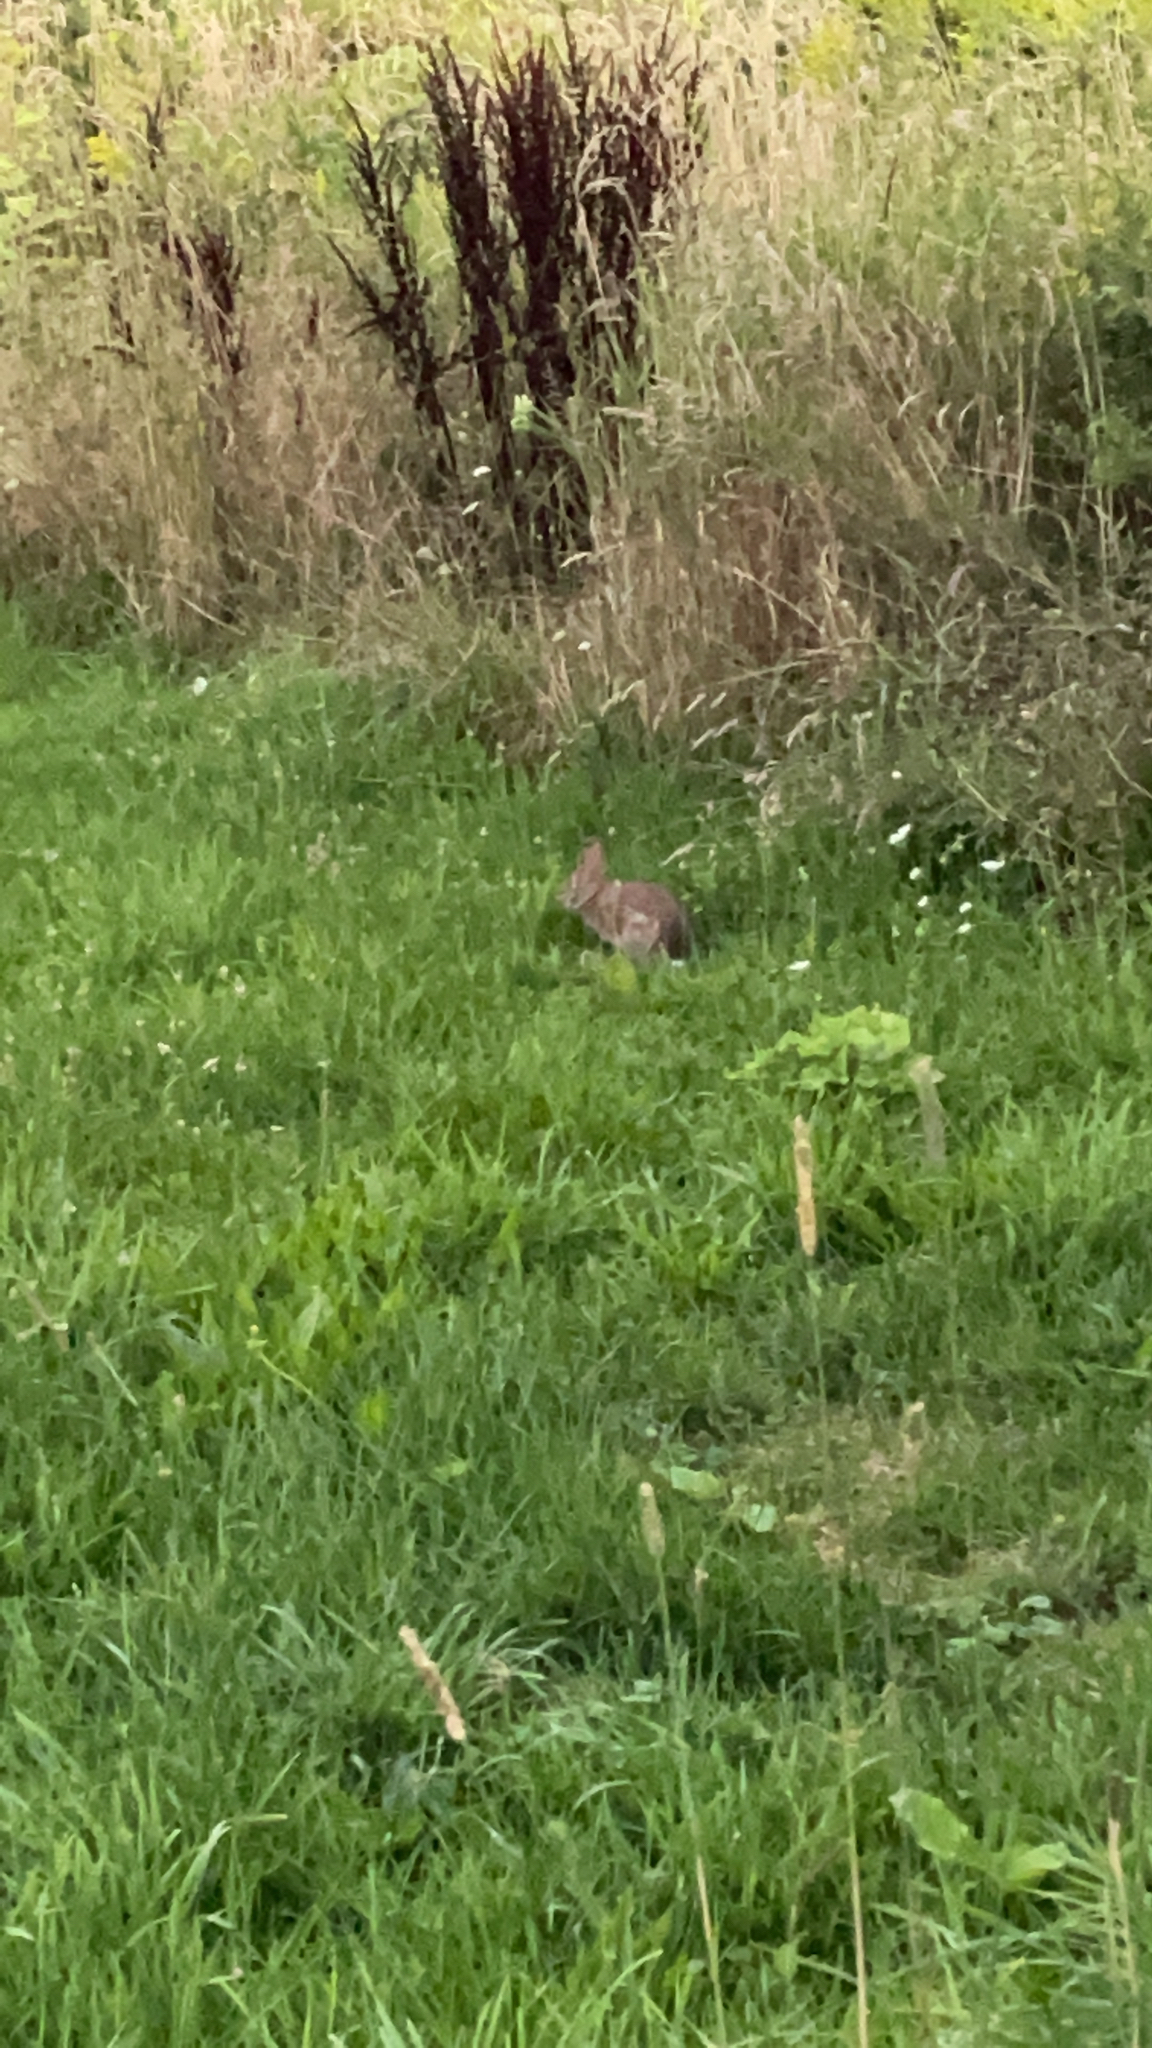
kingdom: Animalia
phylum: Chordata
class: Mammalia
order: Lagomorpha
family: Leporidae
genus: Sylvilagus
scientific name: Sylvilagus floridanus
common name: Eastern cottontail
